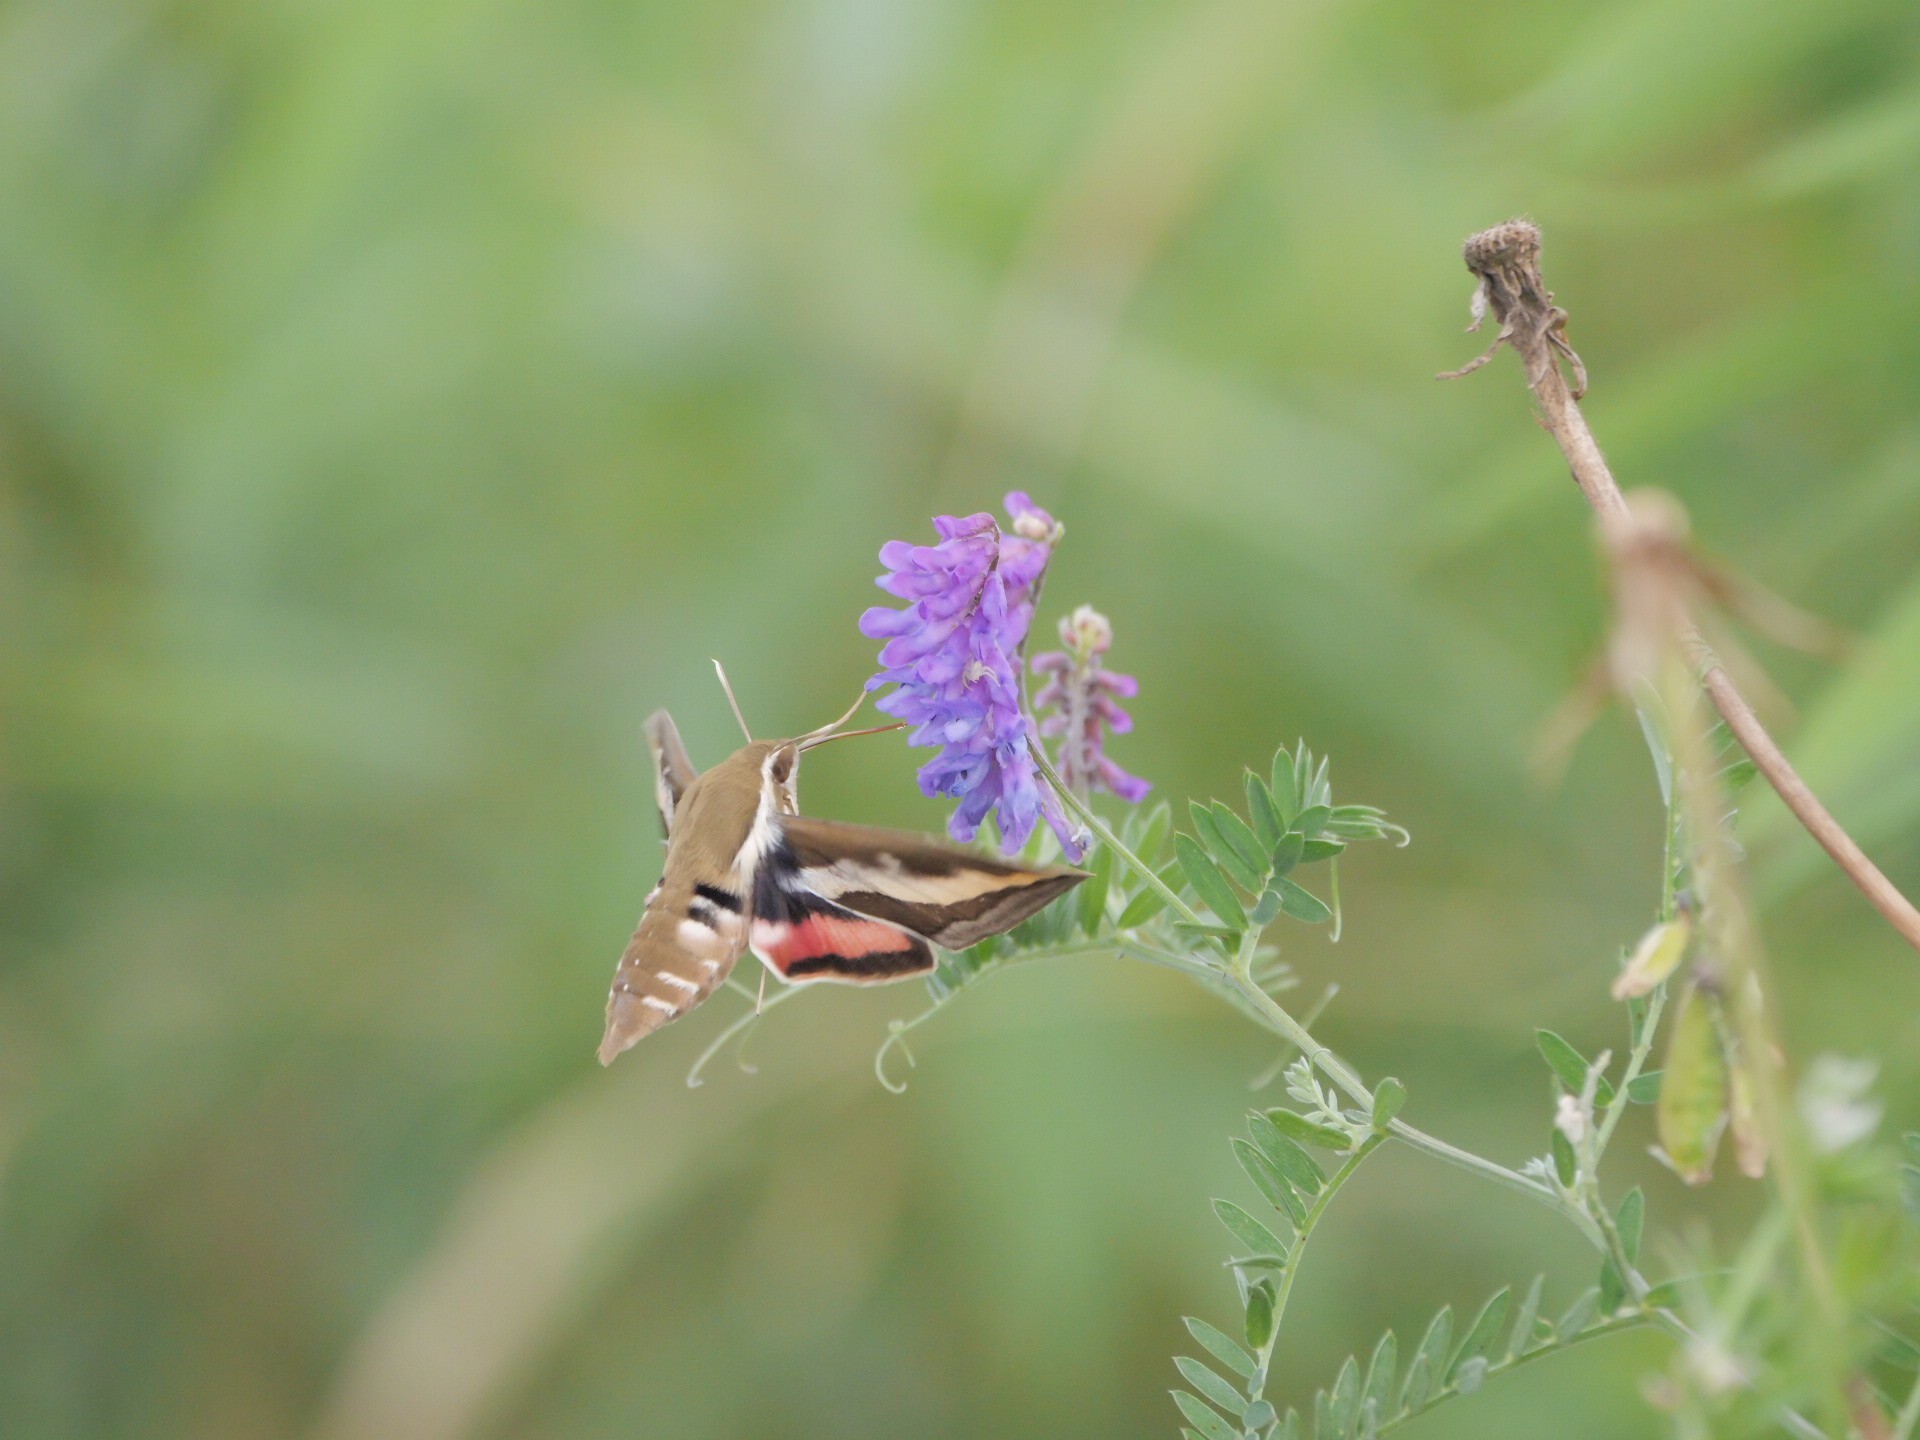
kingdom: Animalia
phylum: Arthropoda
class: Insecta
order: Lepidoptera
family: Sphingidae
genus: Hyles
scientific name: Hyles gallii
